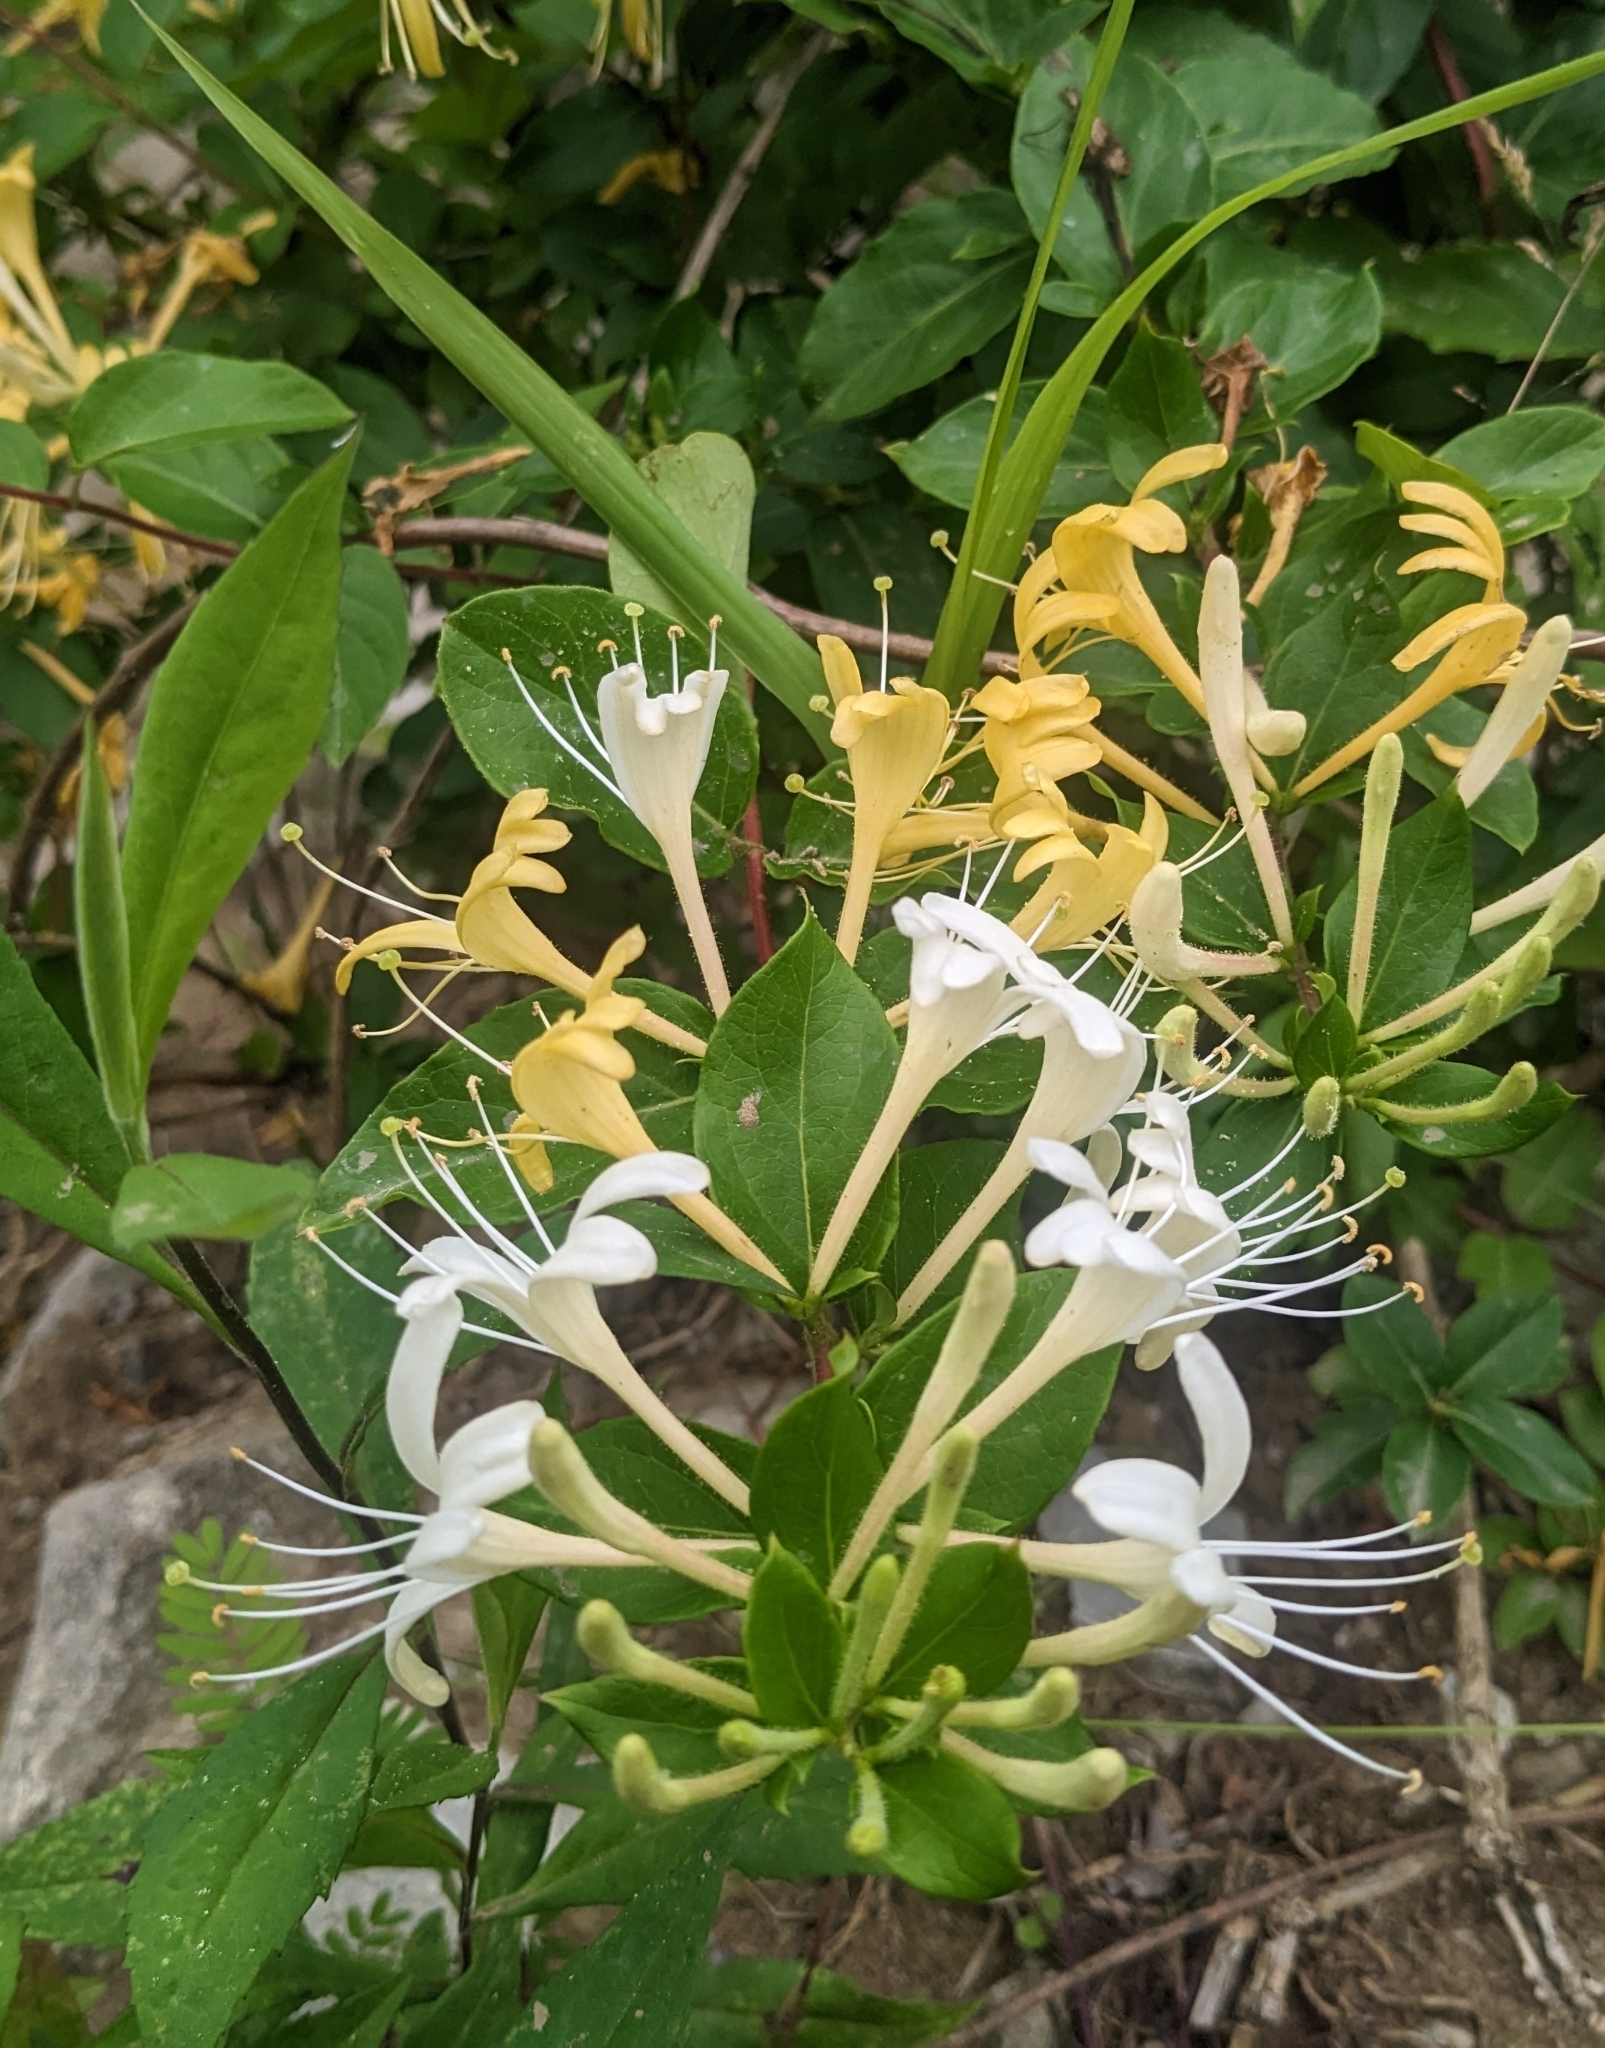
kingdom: Plantae
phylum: Tracheophyta
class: Magnoliopsida
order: Dipsacales
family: Caprifoliaceae
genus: Lonicera
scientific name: Lonicera japonica
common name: Japanese honeysuckle
